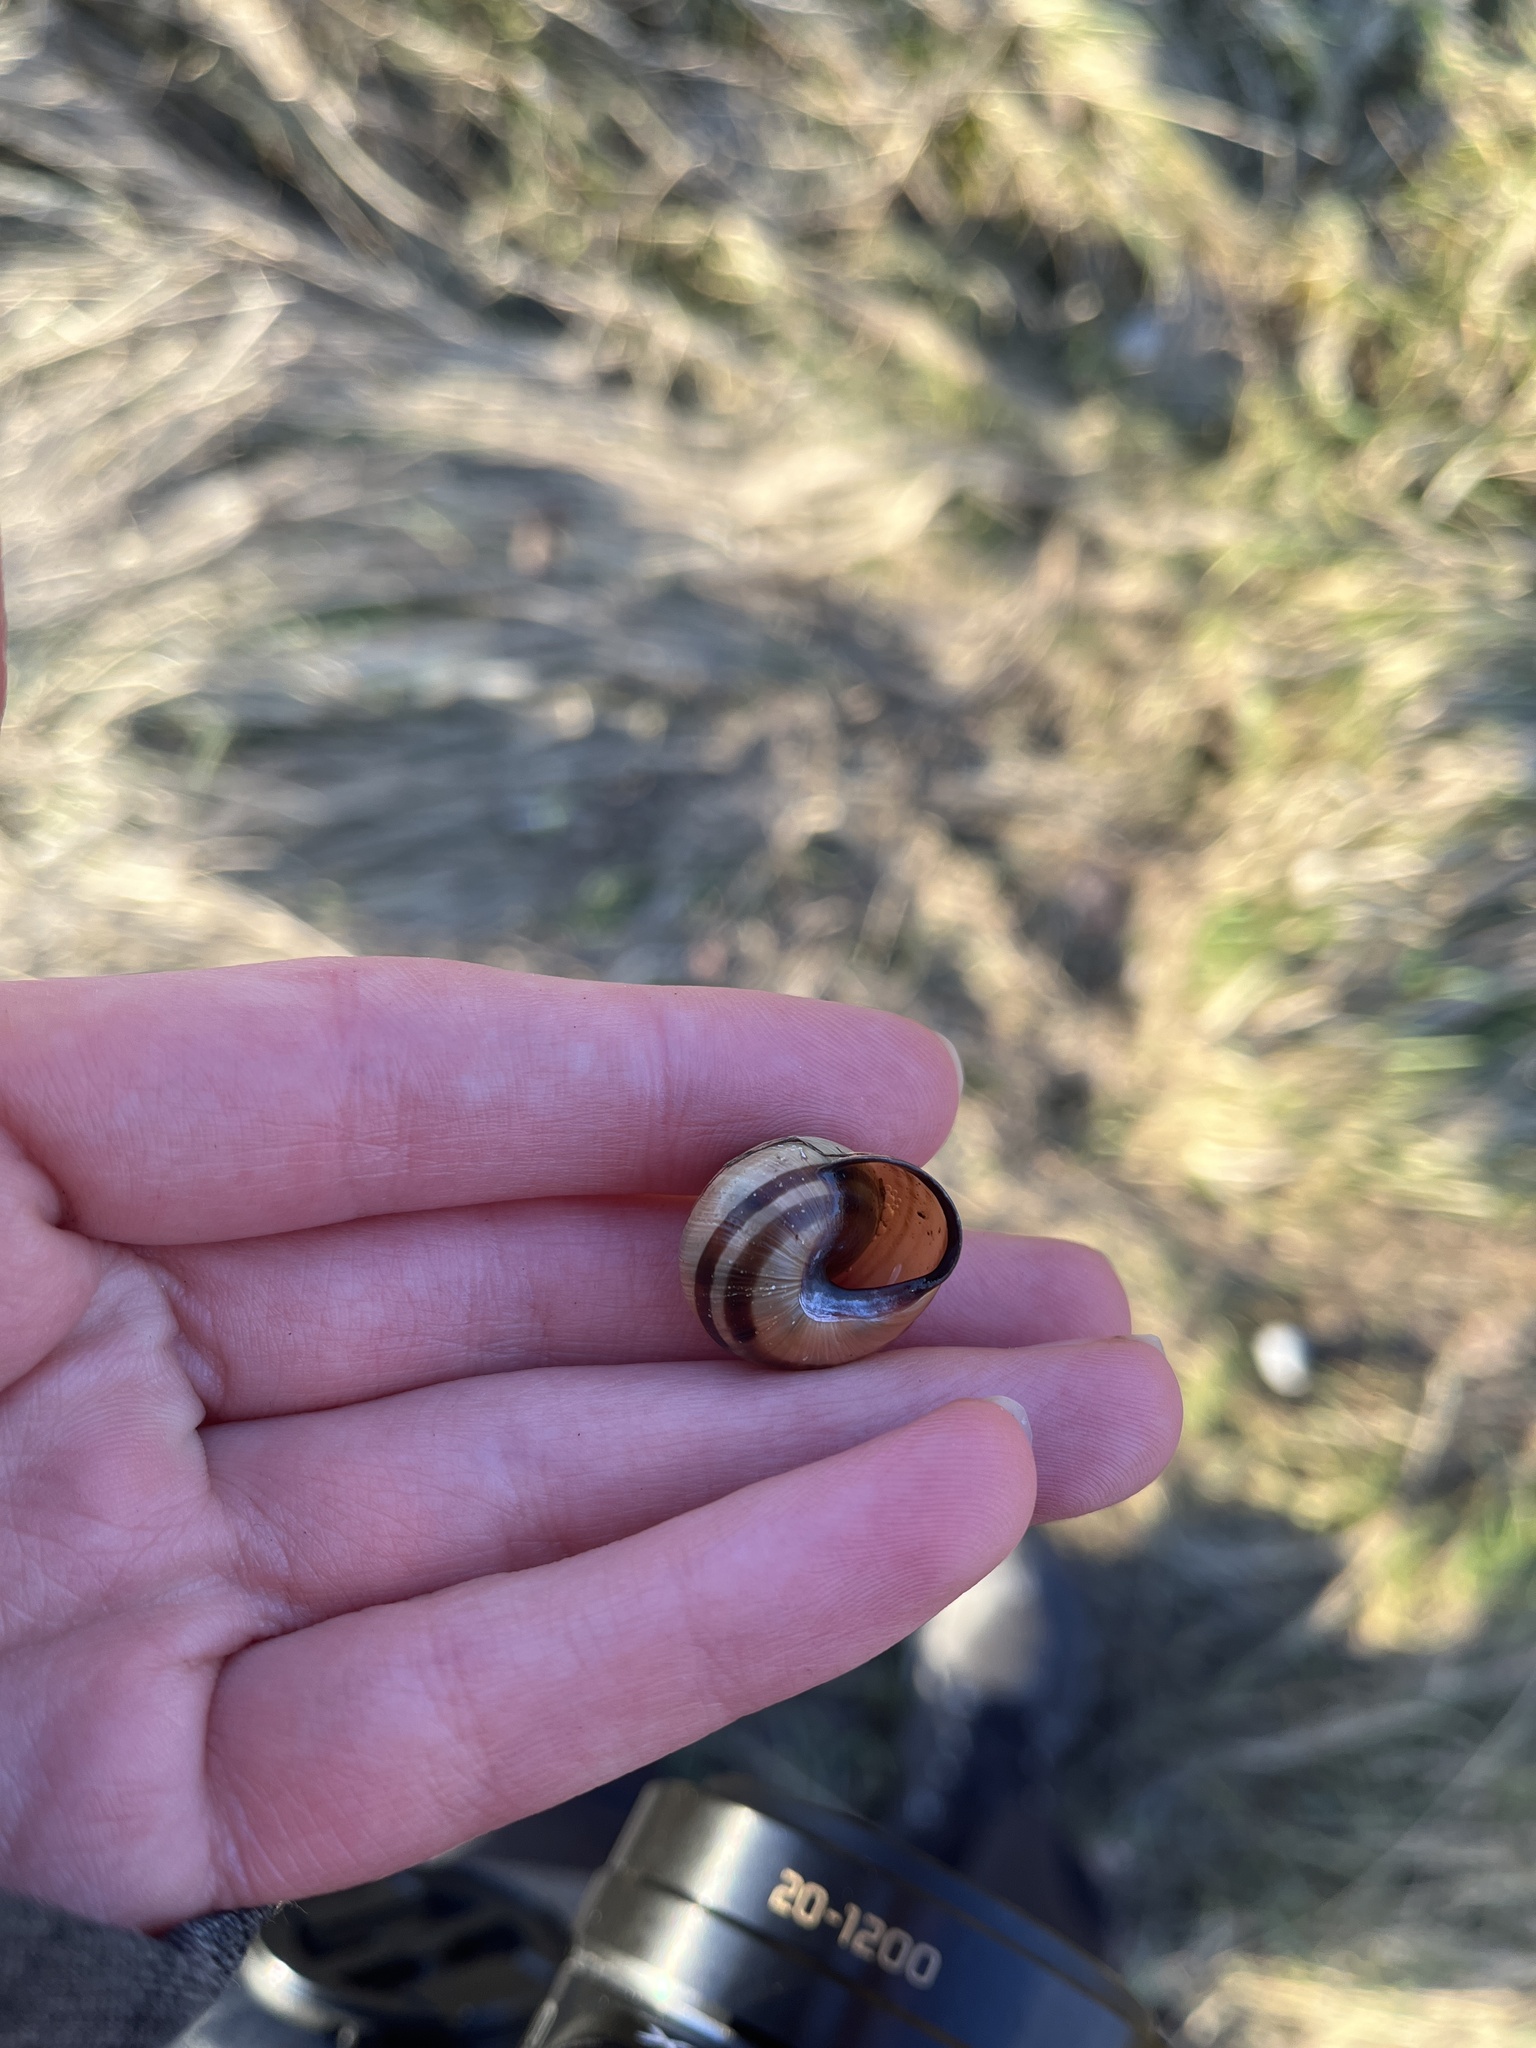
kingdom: Animalia
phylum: Mollusca
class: Gastropoda
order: Stylommatophora
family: Helicidae
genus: Cepaea
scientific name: Cepaea nemoralis
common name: Grovesnail
